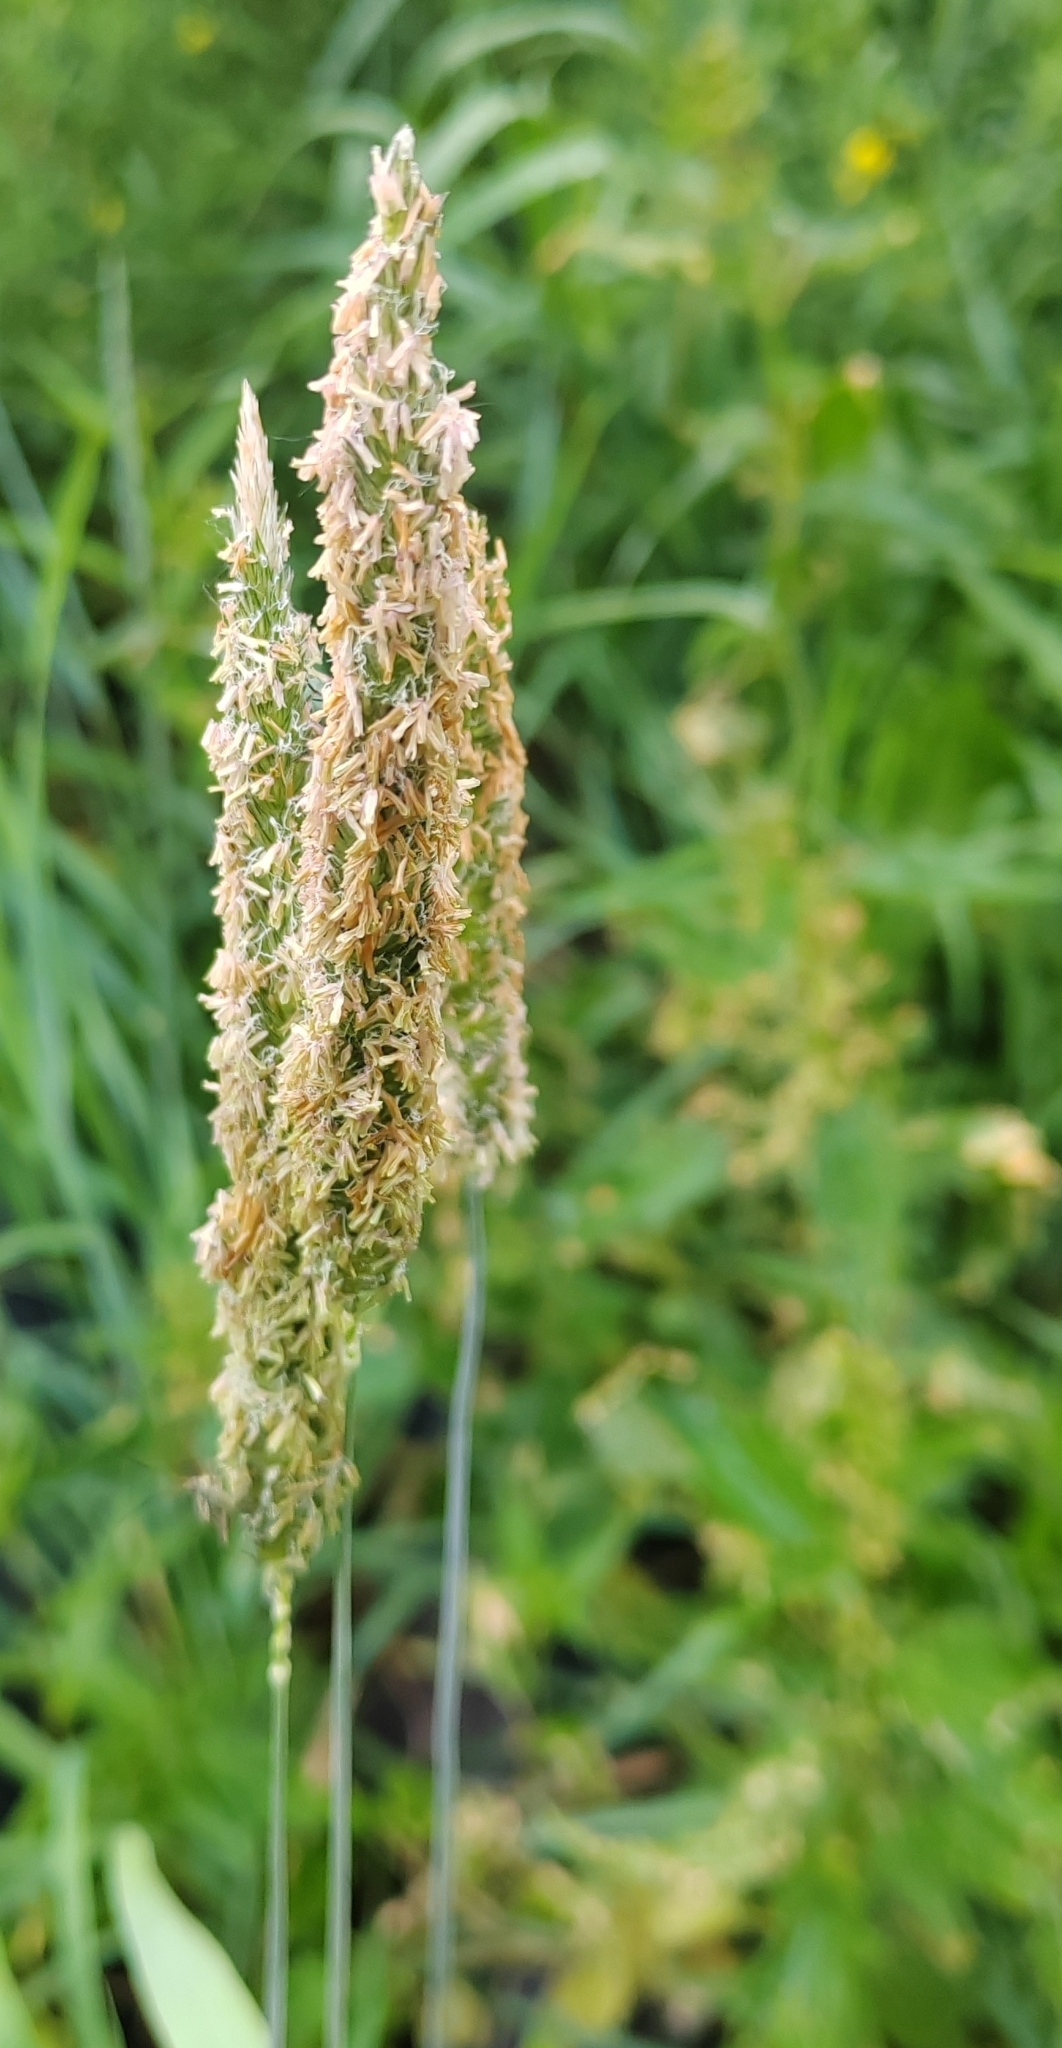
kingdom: Plantae
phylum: Tracheophyta
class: Liliopsida
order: Poales
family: Poaceae
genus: Phleum
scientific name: Phleum pratense
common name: Timothy grass
